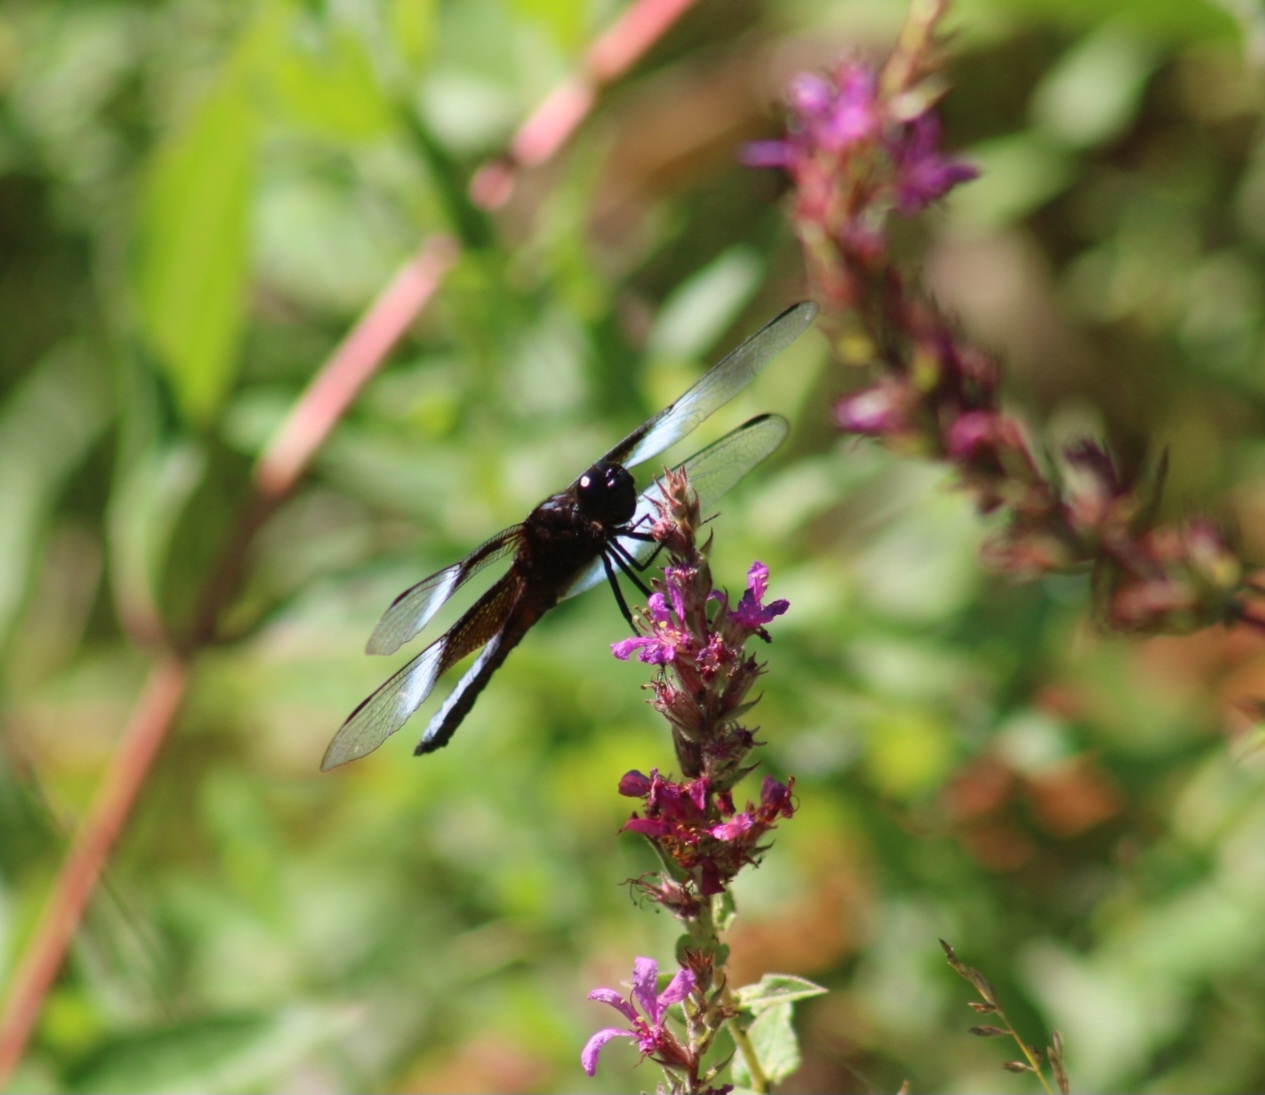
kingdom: Animalia
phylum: Arthropoda
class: Insecta
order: Odonata
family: Libellulidae
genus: Libellula
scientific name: Libellula luctuosa
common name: Widow skimmer
